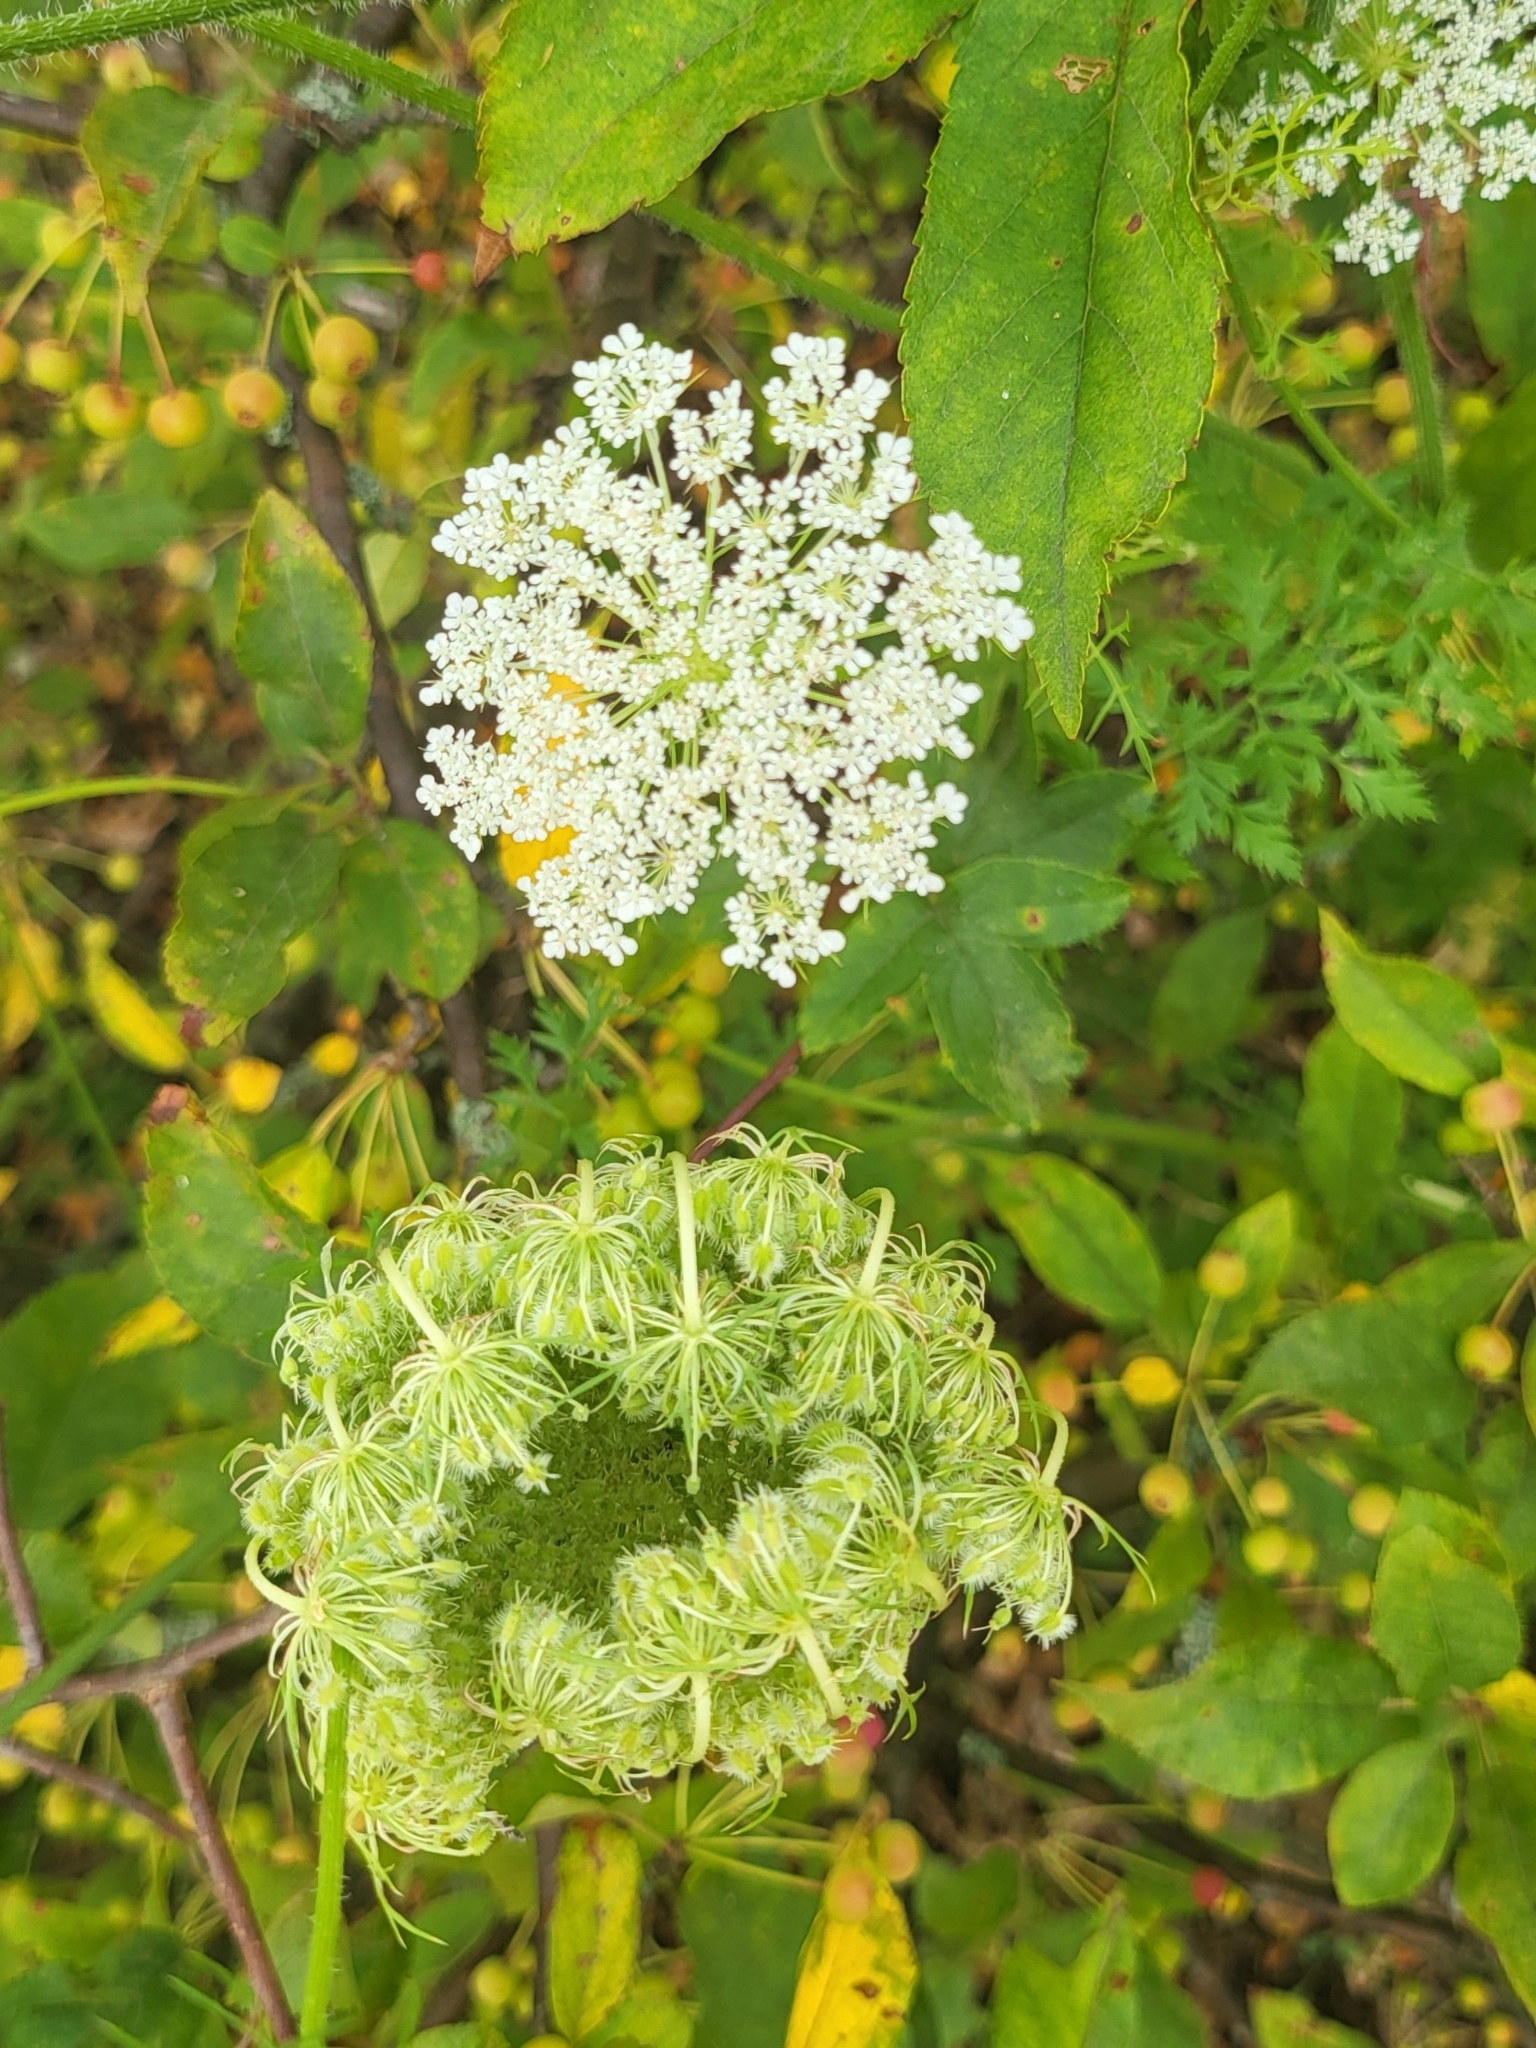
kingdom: Plantae
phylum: Tracheophyta
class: Magnoliopsida
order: Apiales
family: Apiaceae
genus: Daucus
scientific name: Daucus carota
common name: Wild carrot
